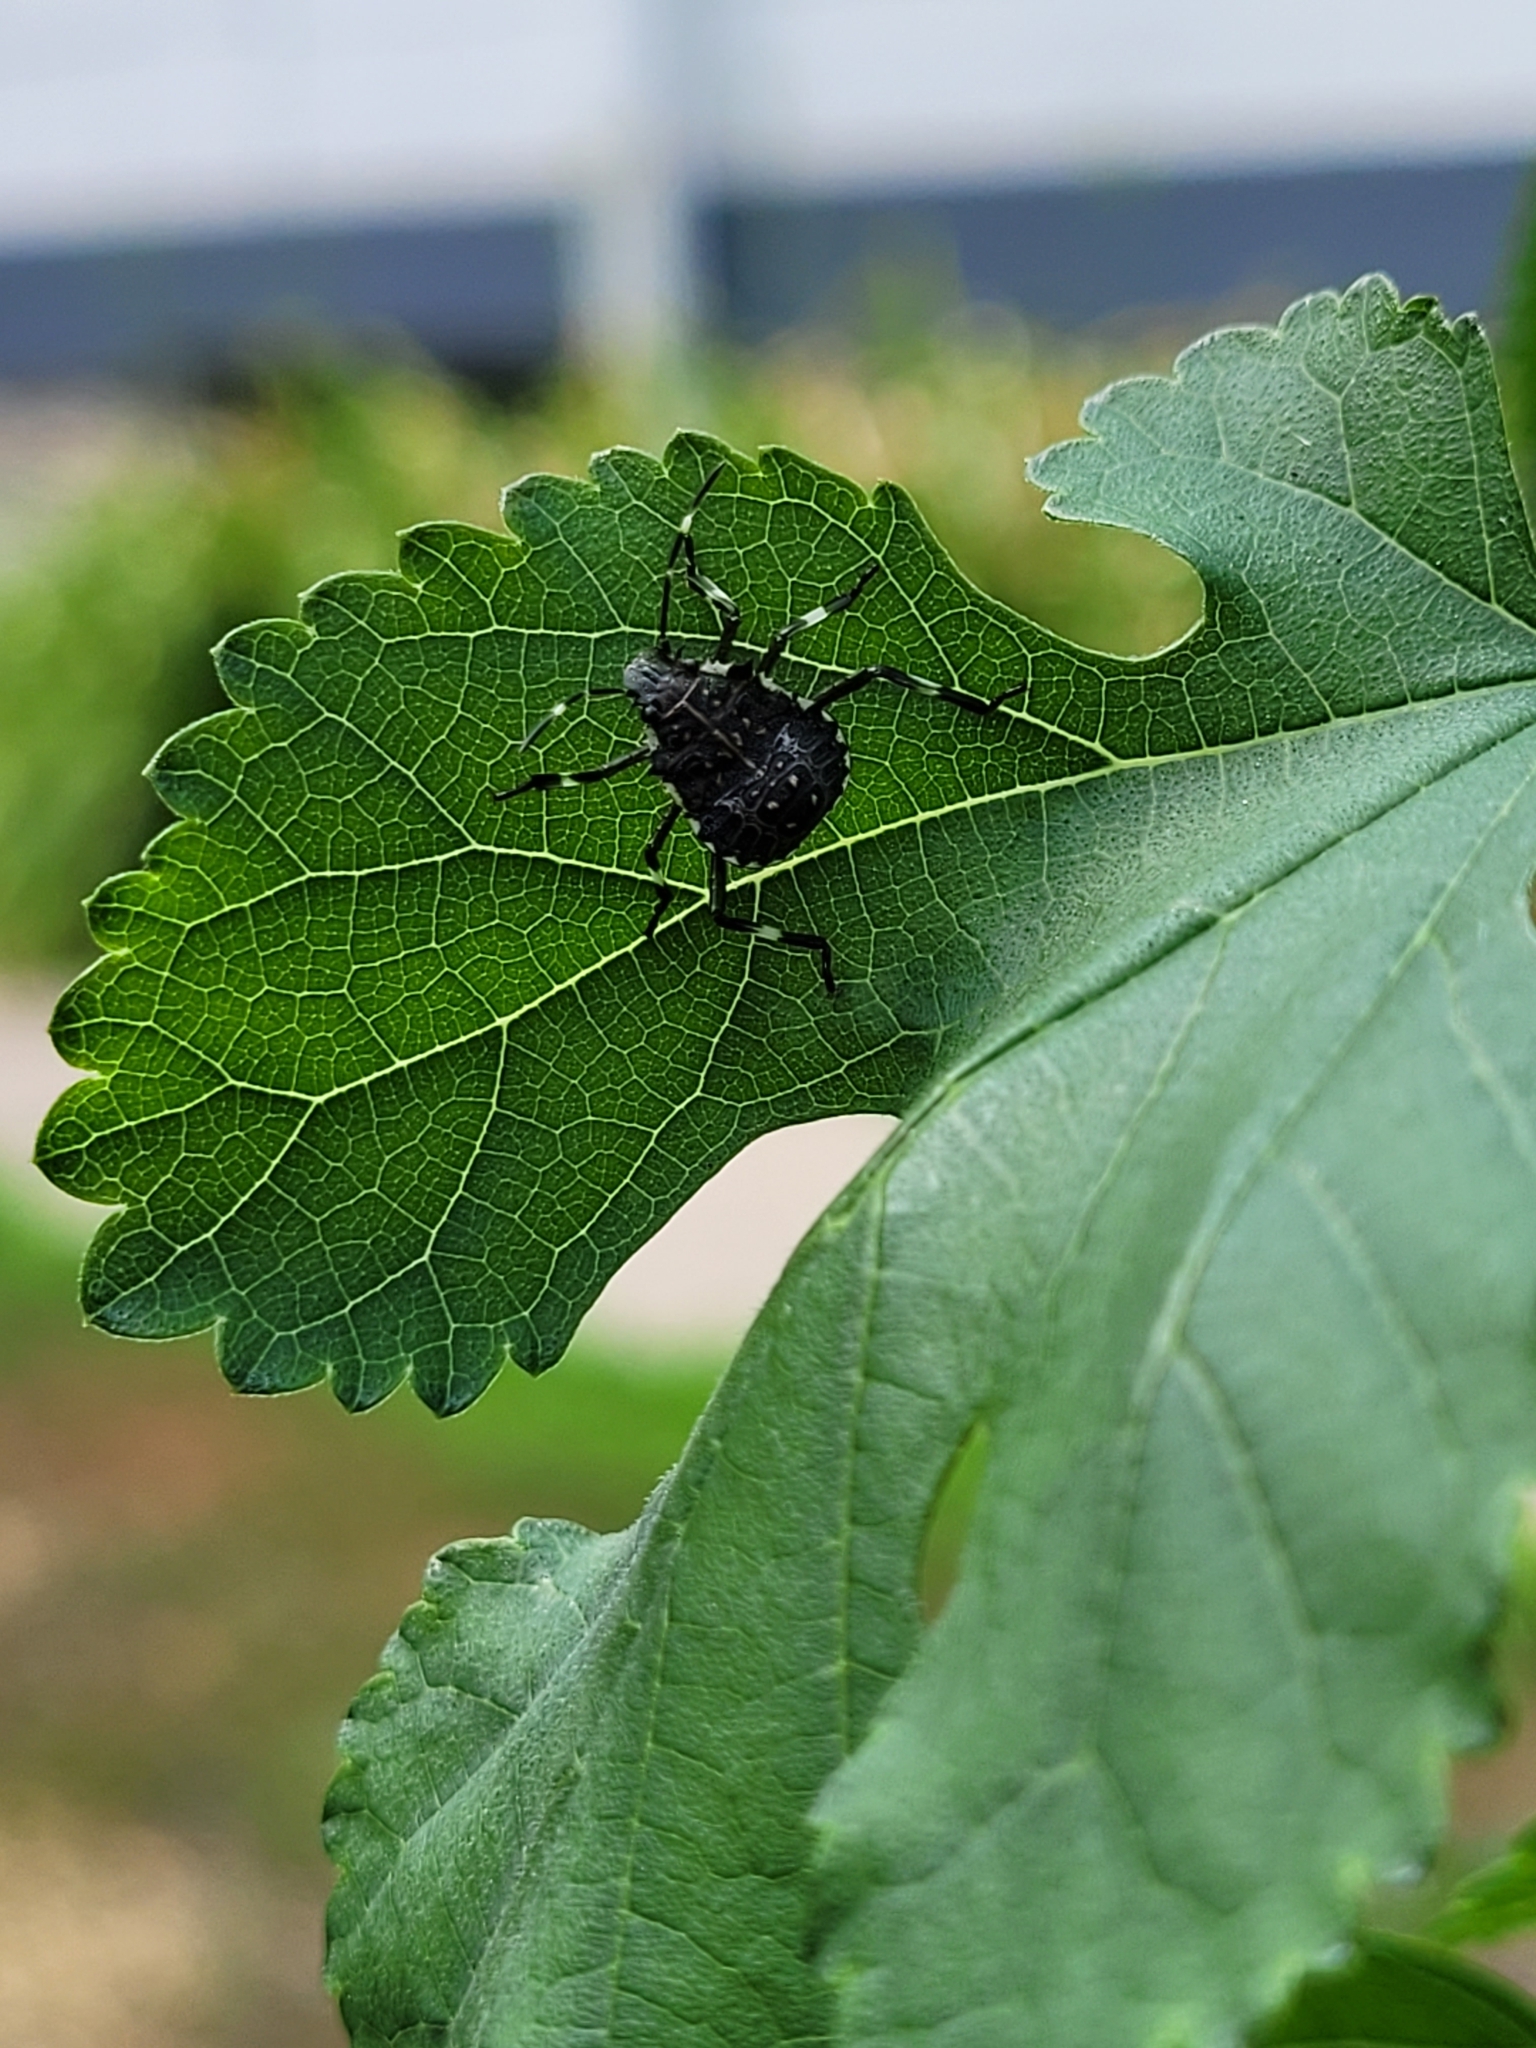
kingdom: Animalia
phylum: Arthropoda
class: Insecta
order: Hemiptera
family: Pentatomidae
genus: Halyomorpha
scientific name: Halyomorpha halys
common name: Brown marmorated stink bug
